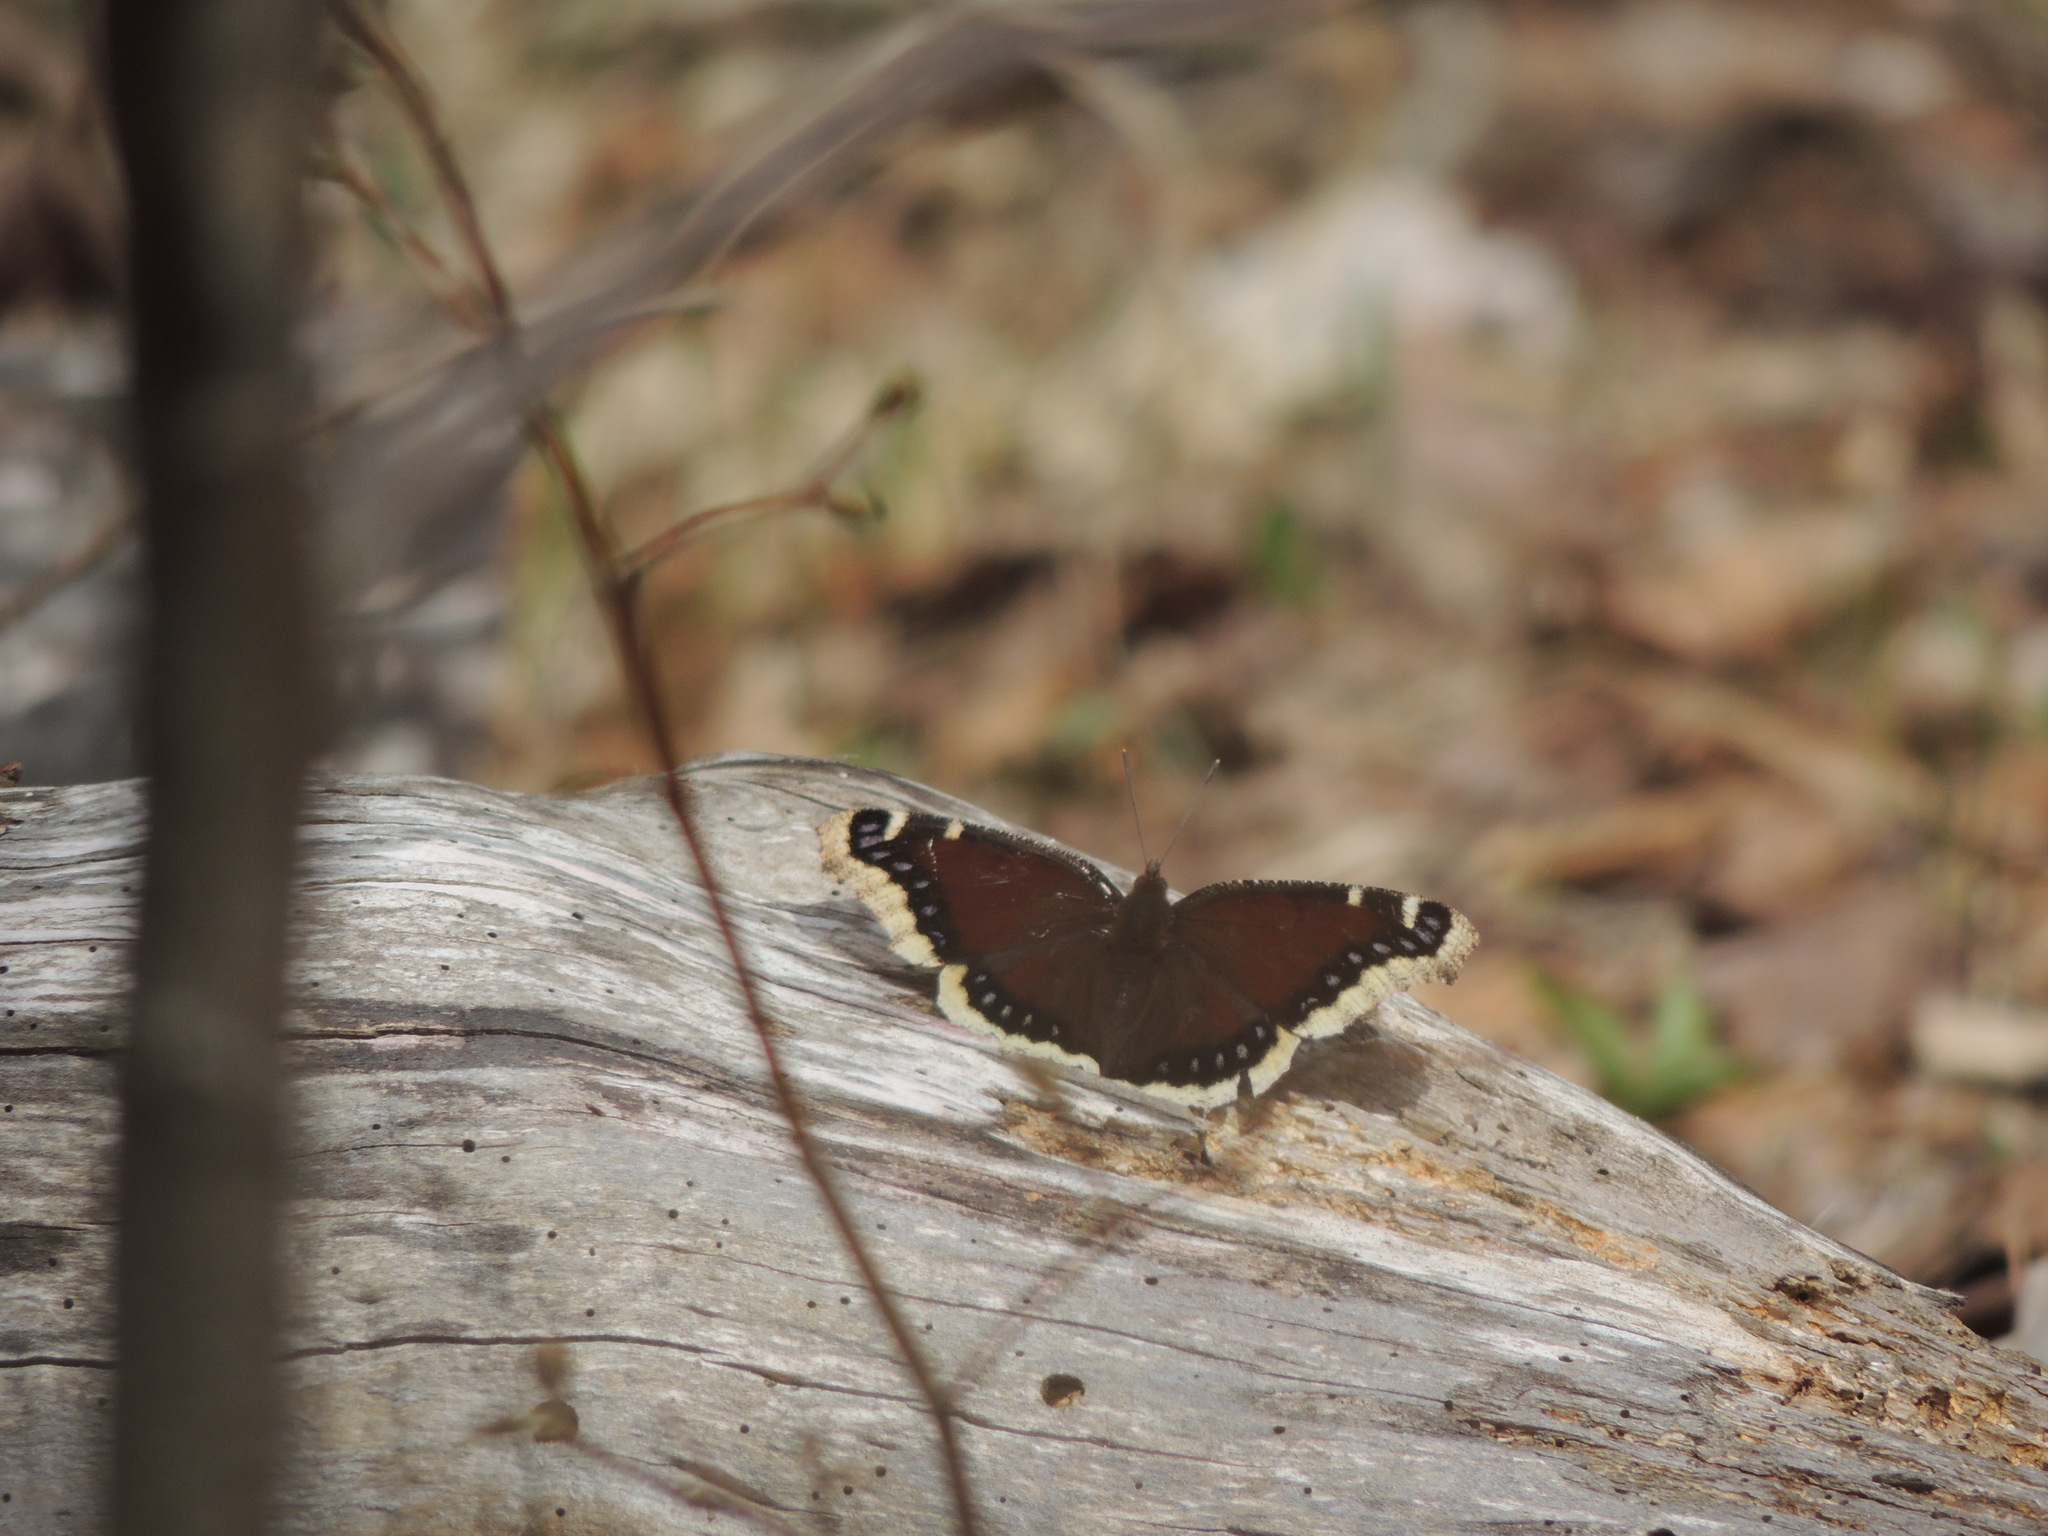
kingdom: Animalia
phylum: Arthropoda
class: Insecta
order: Lepidoptera
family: Nymphalidae
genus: Nymphalis
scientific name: Nymphalis antiopa
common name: Camberwell beauty
